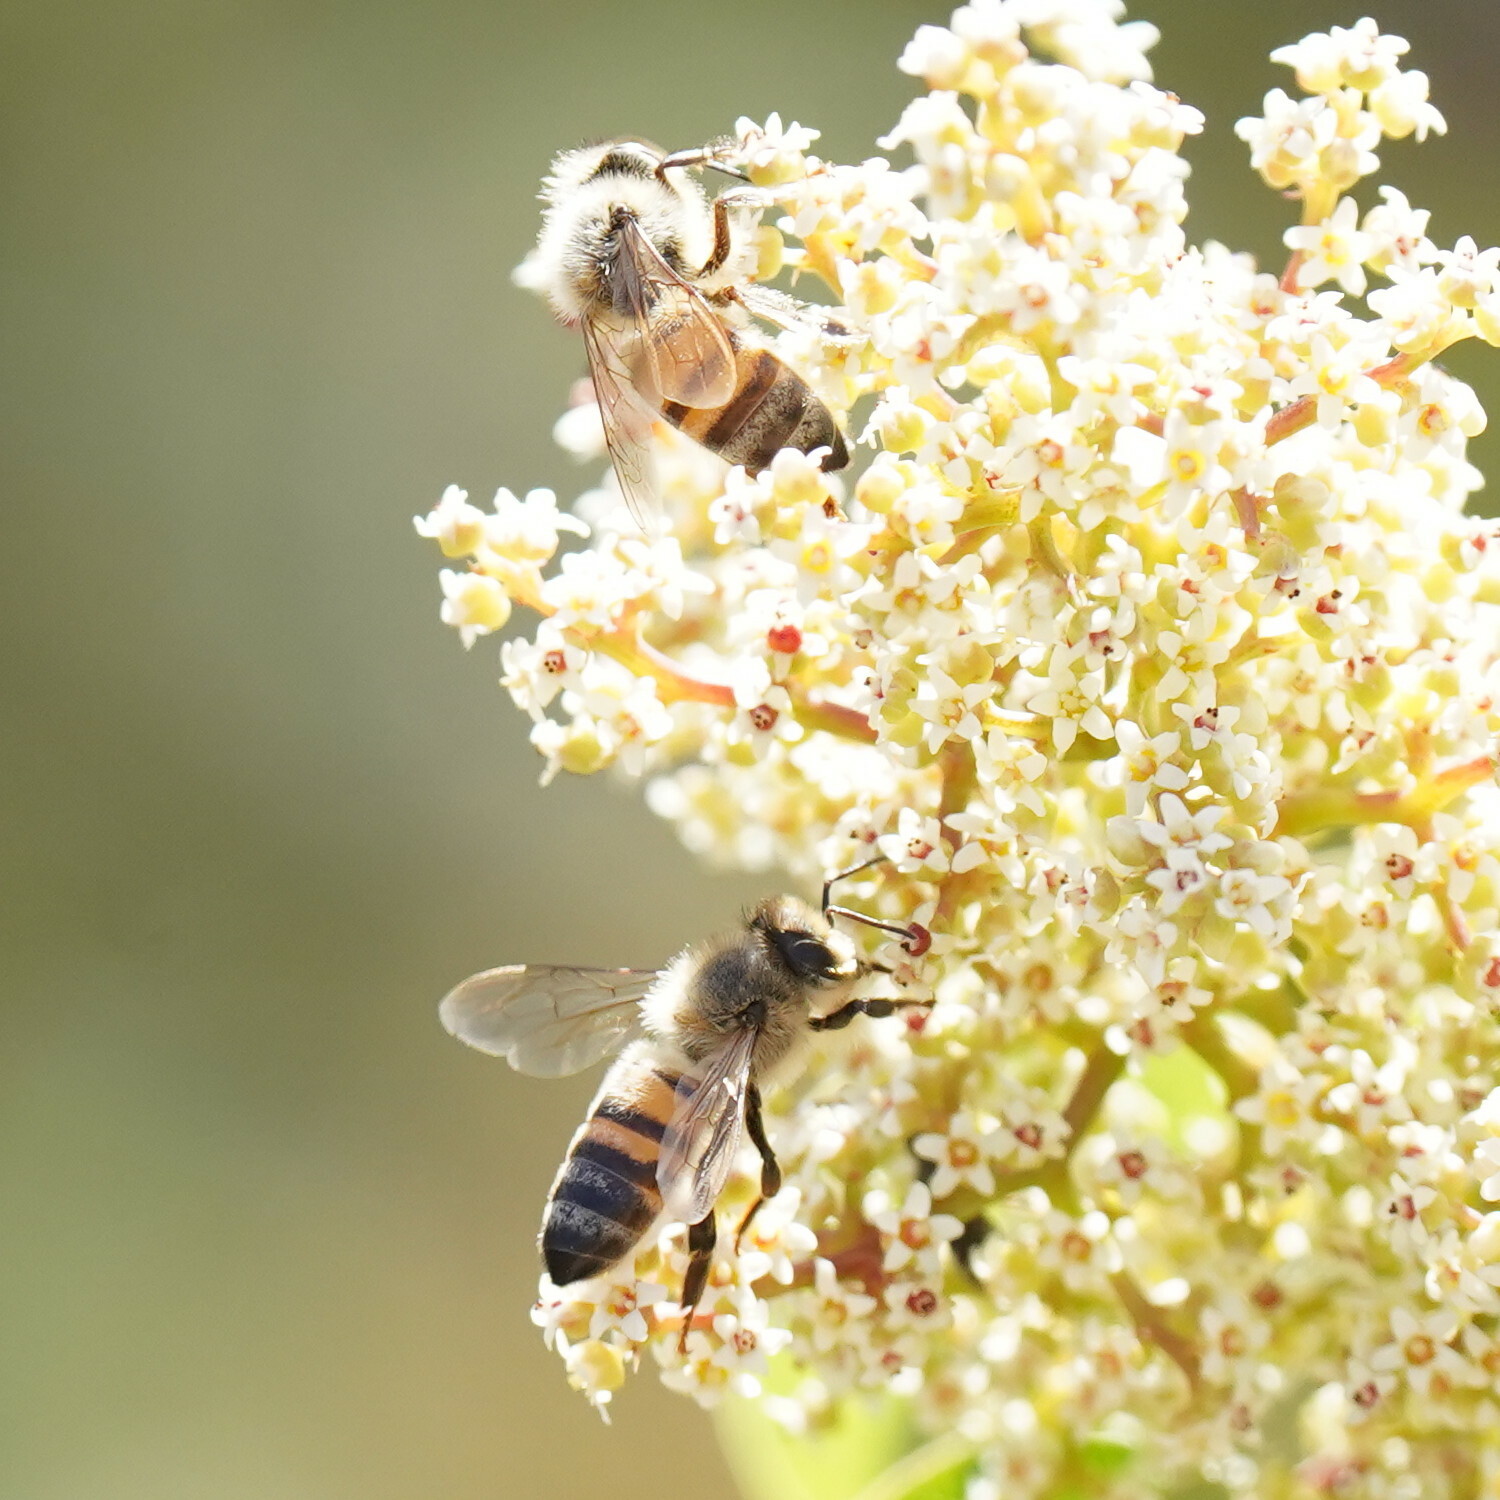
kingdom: Animalia
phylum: Arthropoda
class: Insecta
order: Hymenoptera
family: Apidae
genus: Apis
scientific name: Apis mellifera
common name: Honey bee
